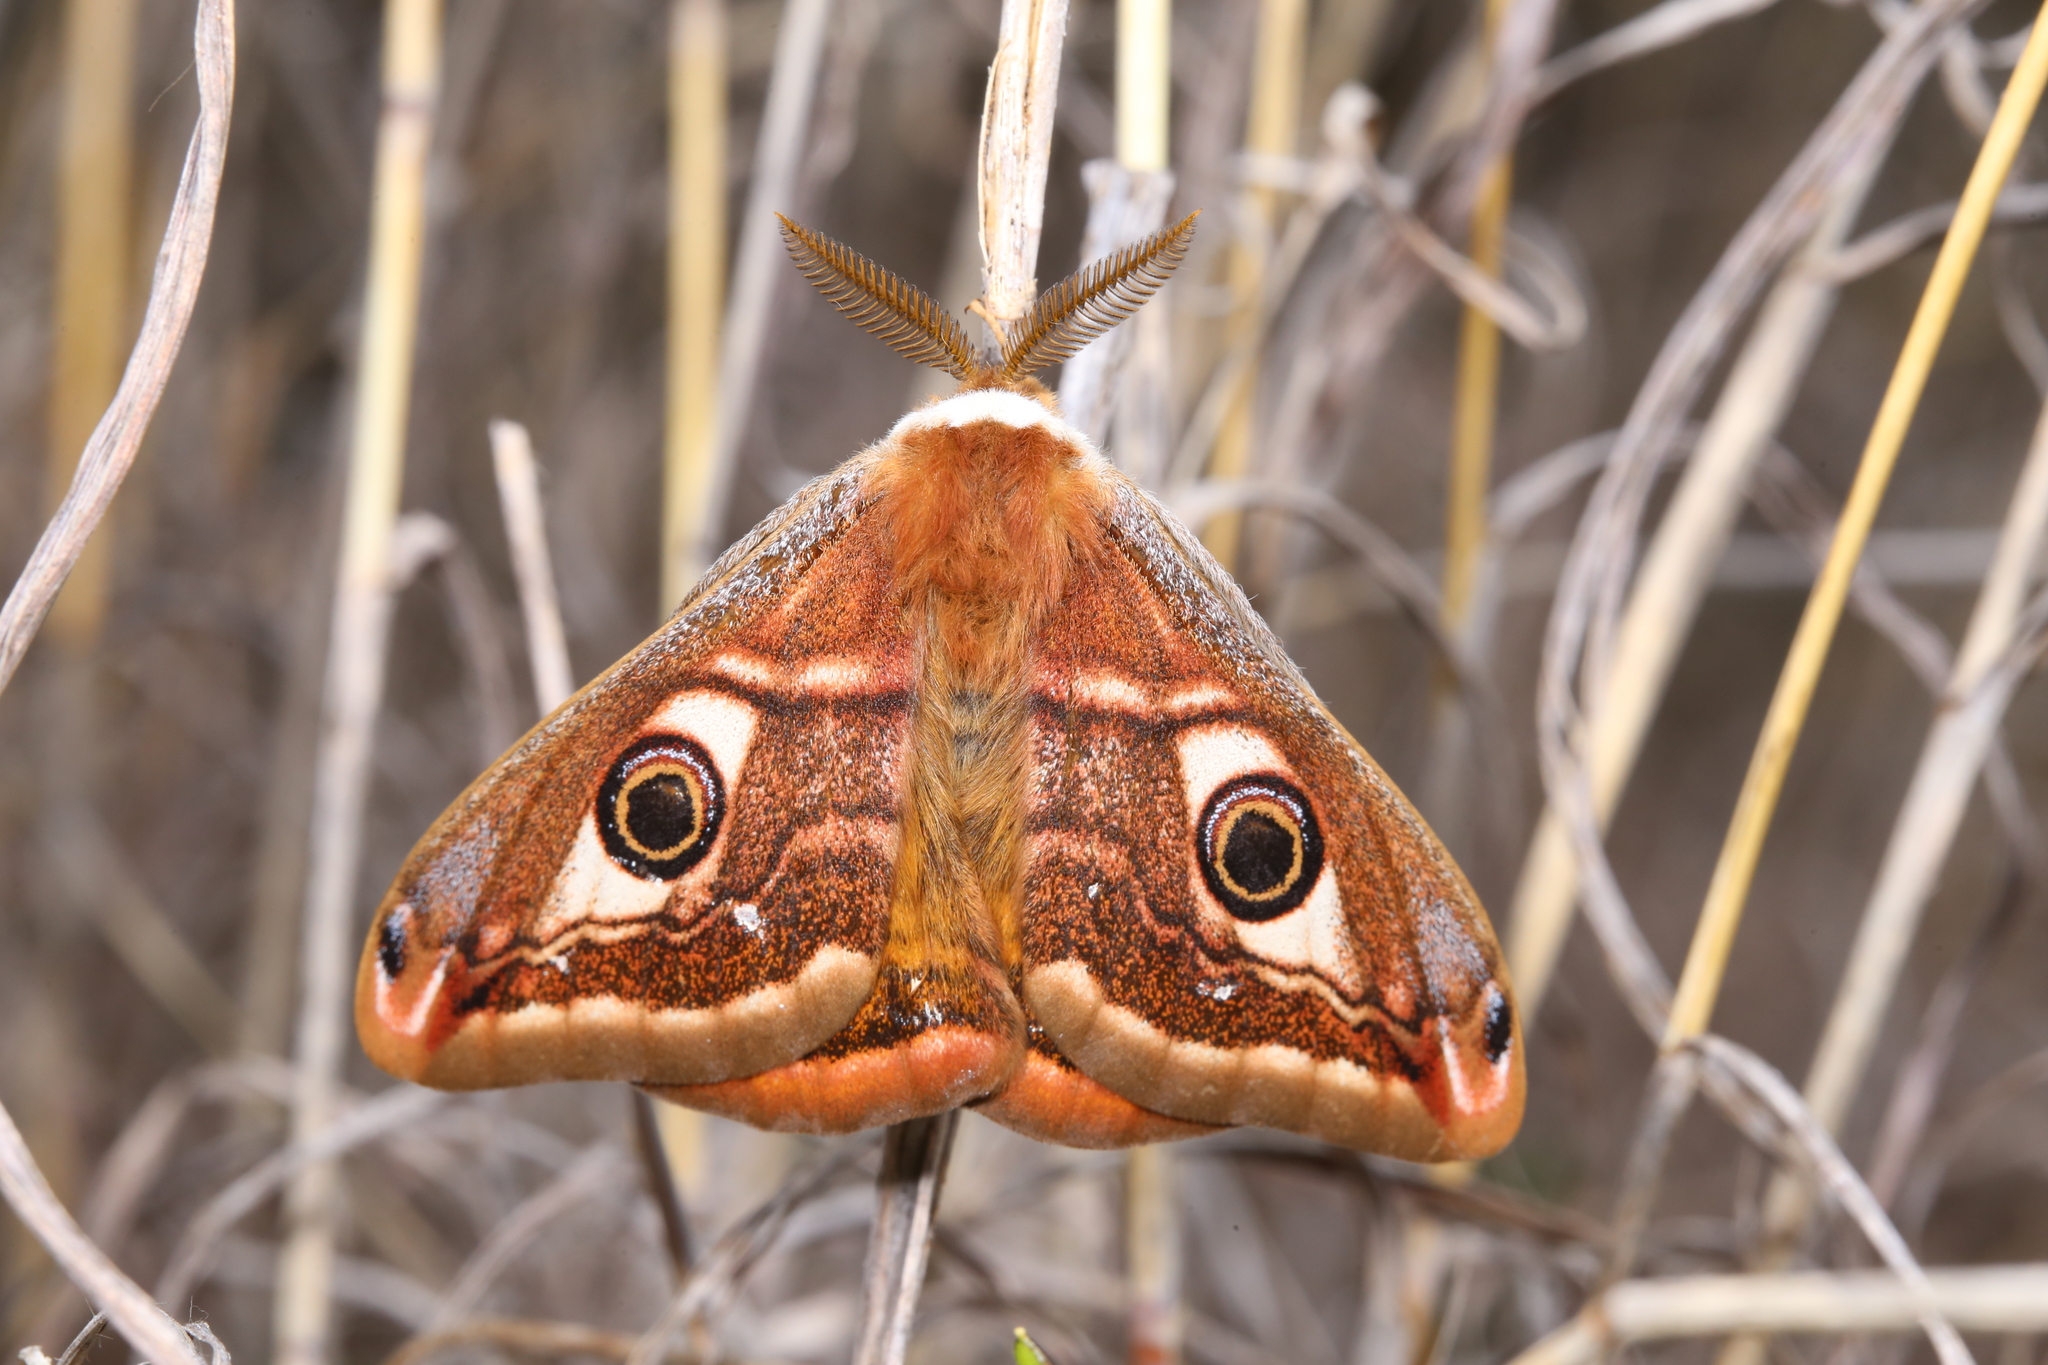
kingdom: Animalia
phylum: Arthropoda
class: Insecta
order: Lepidoptera
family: Saturniidae
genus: Saturnia
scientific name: Saturnia pavoniella
